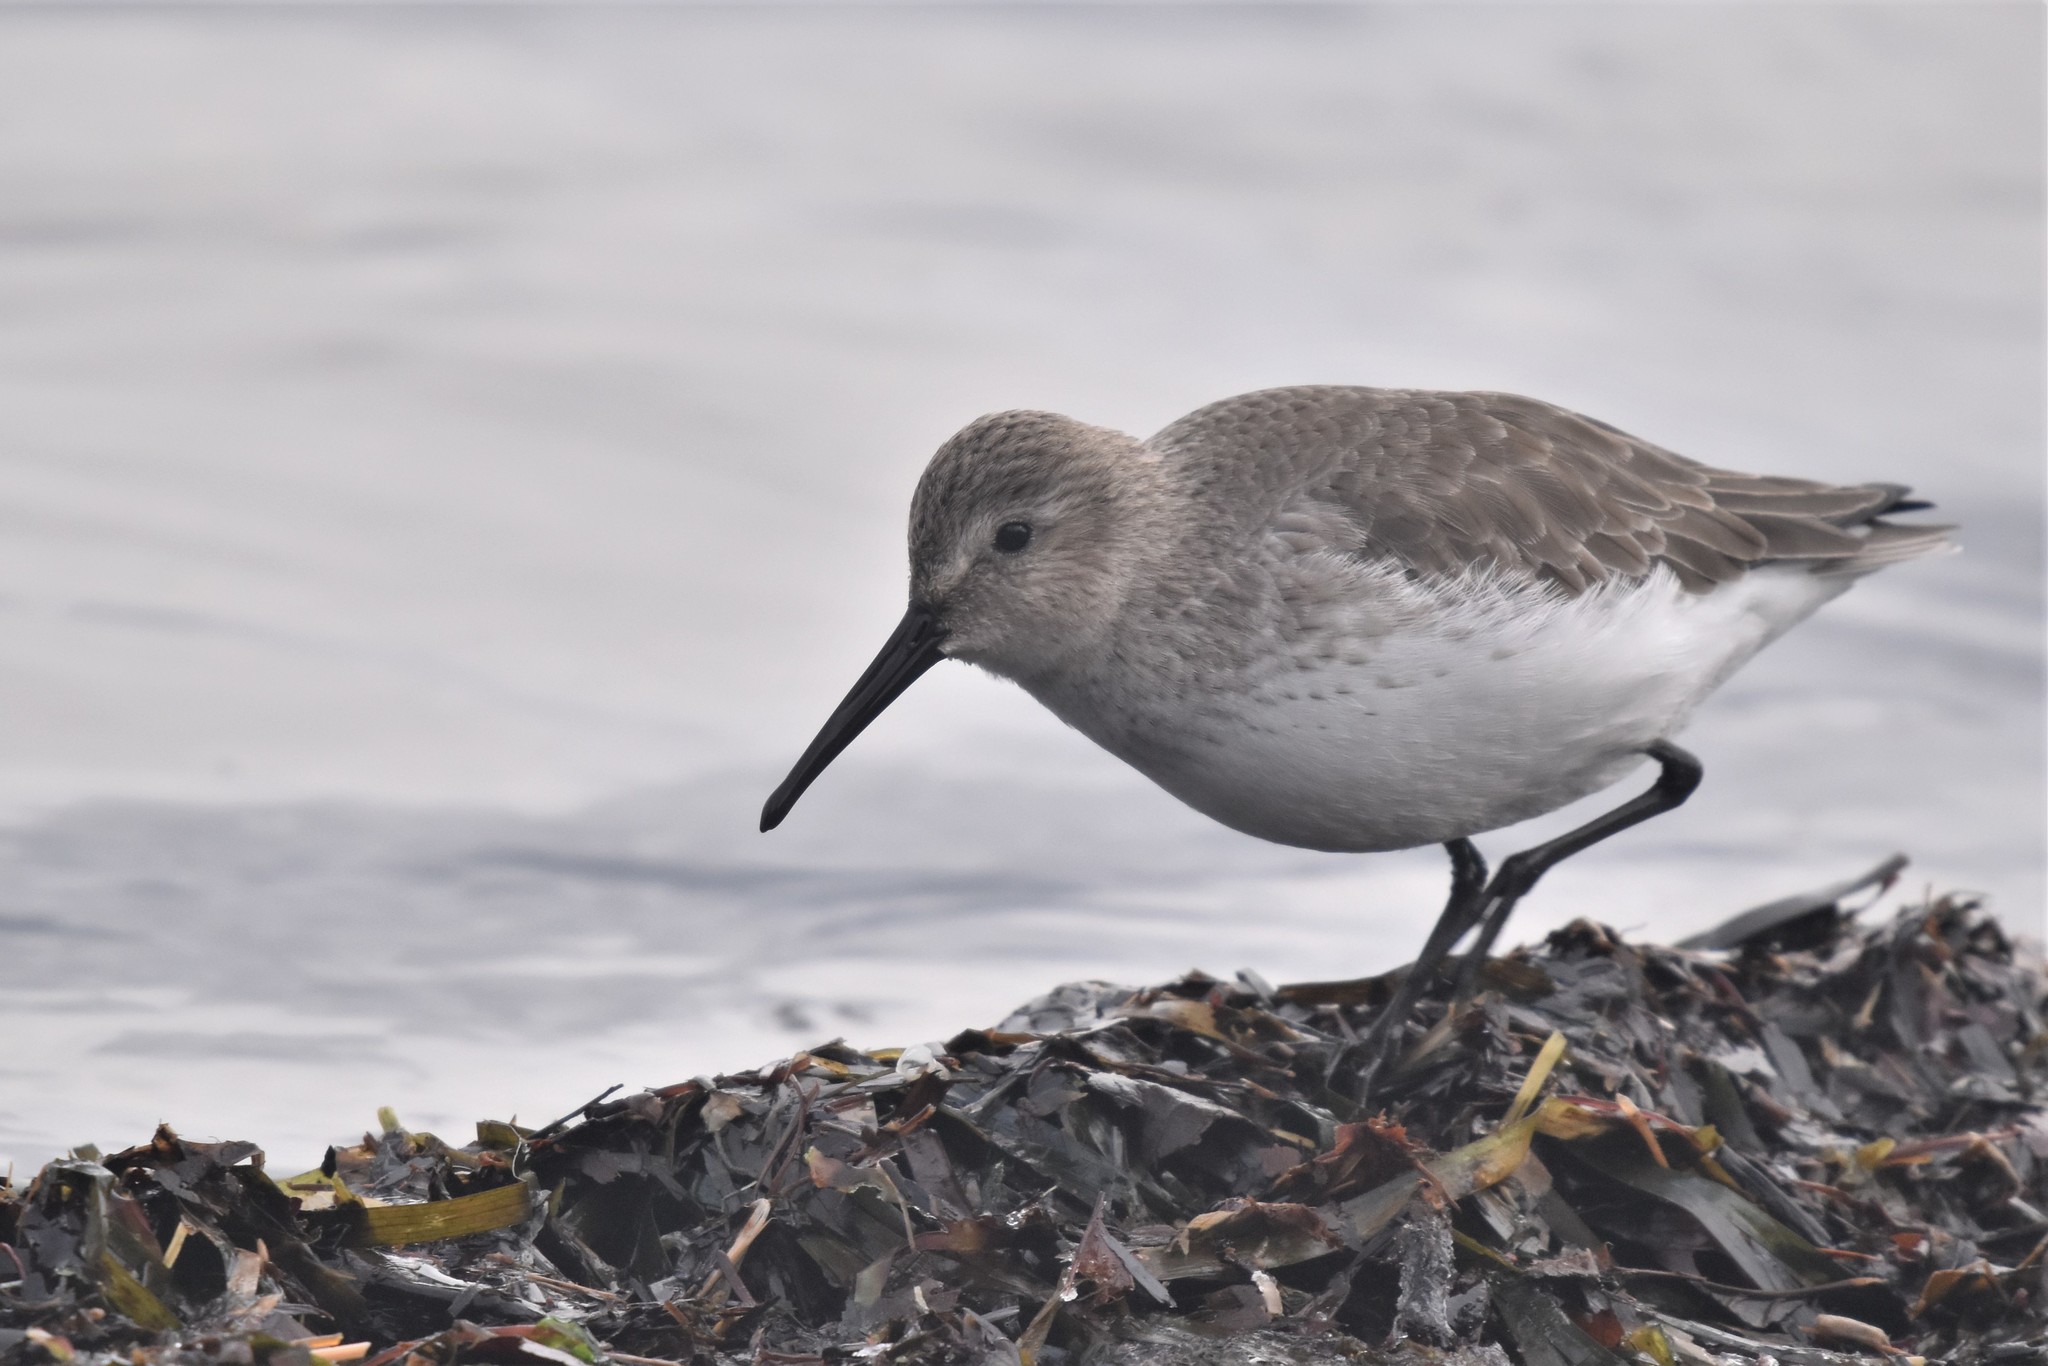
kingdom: Animalia
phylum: Chordata
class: Aves
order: Charadriiformes
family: Scolopacidae
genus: Calidris
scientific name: Calidris alpina
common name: Dunlin
